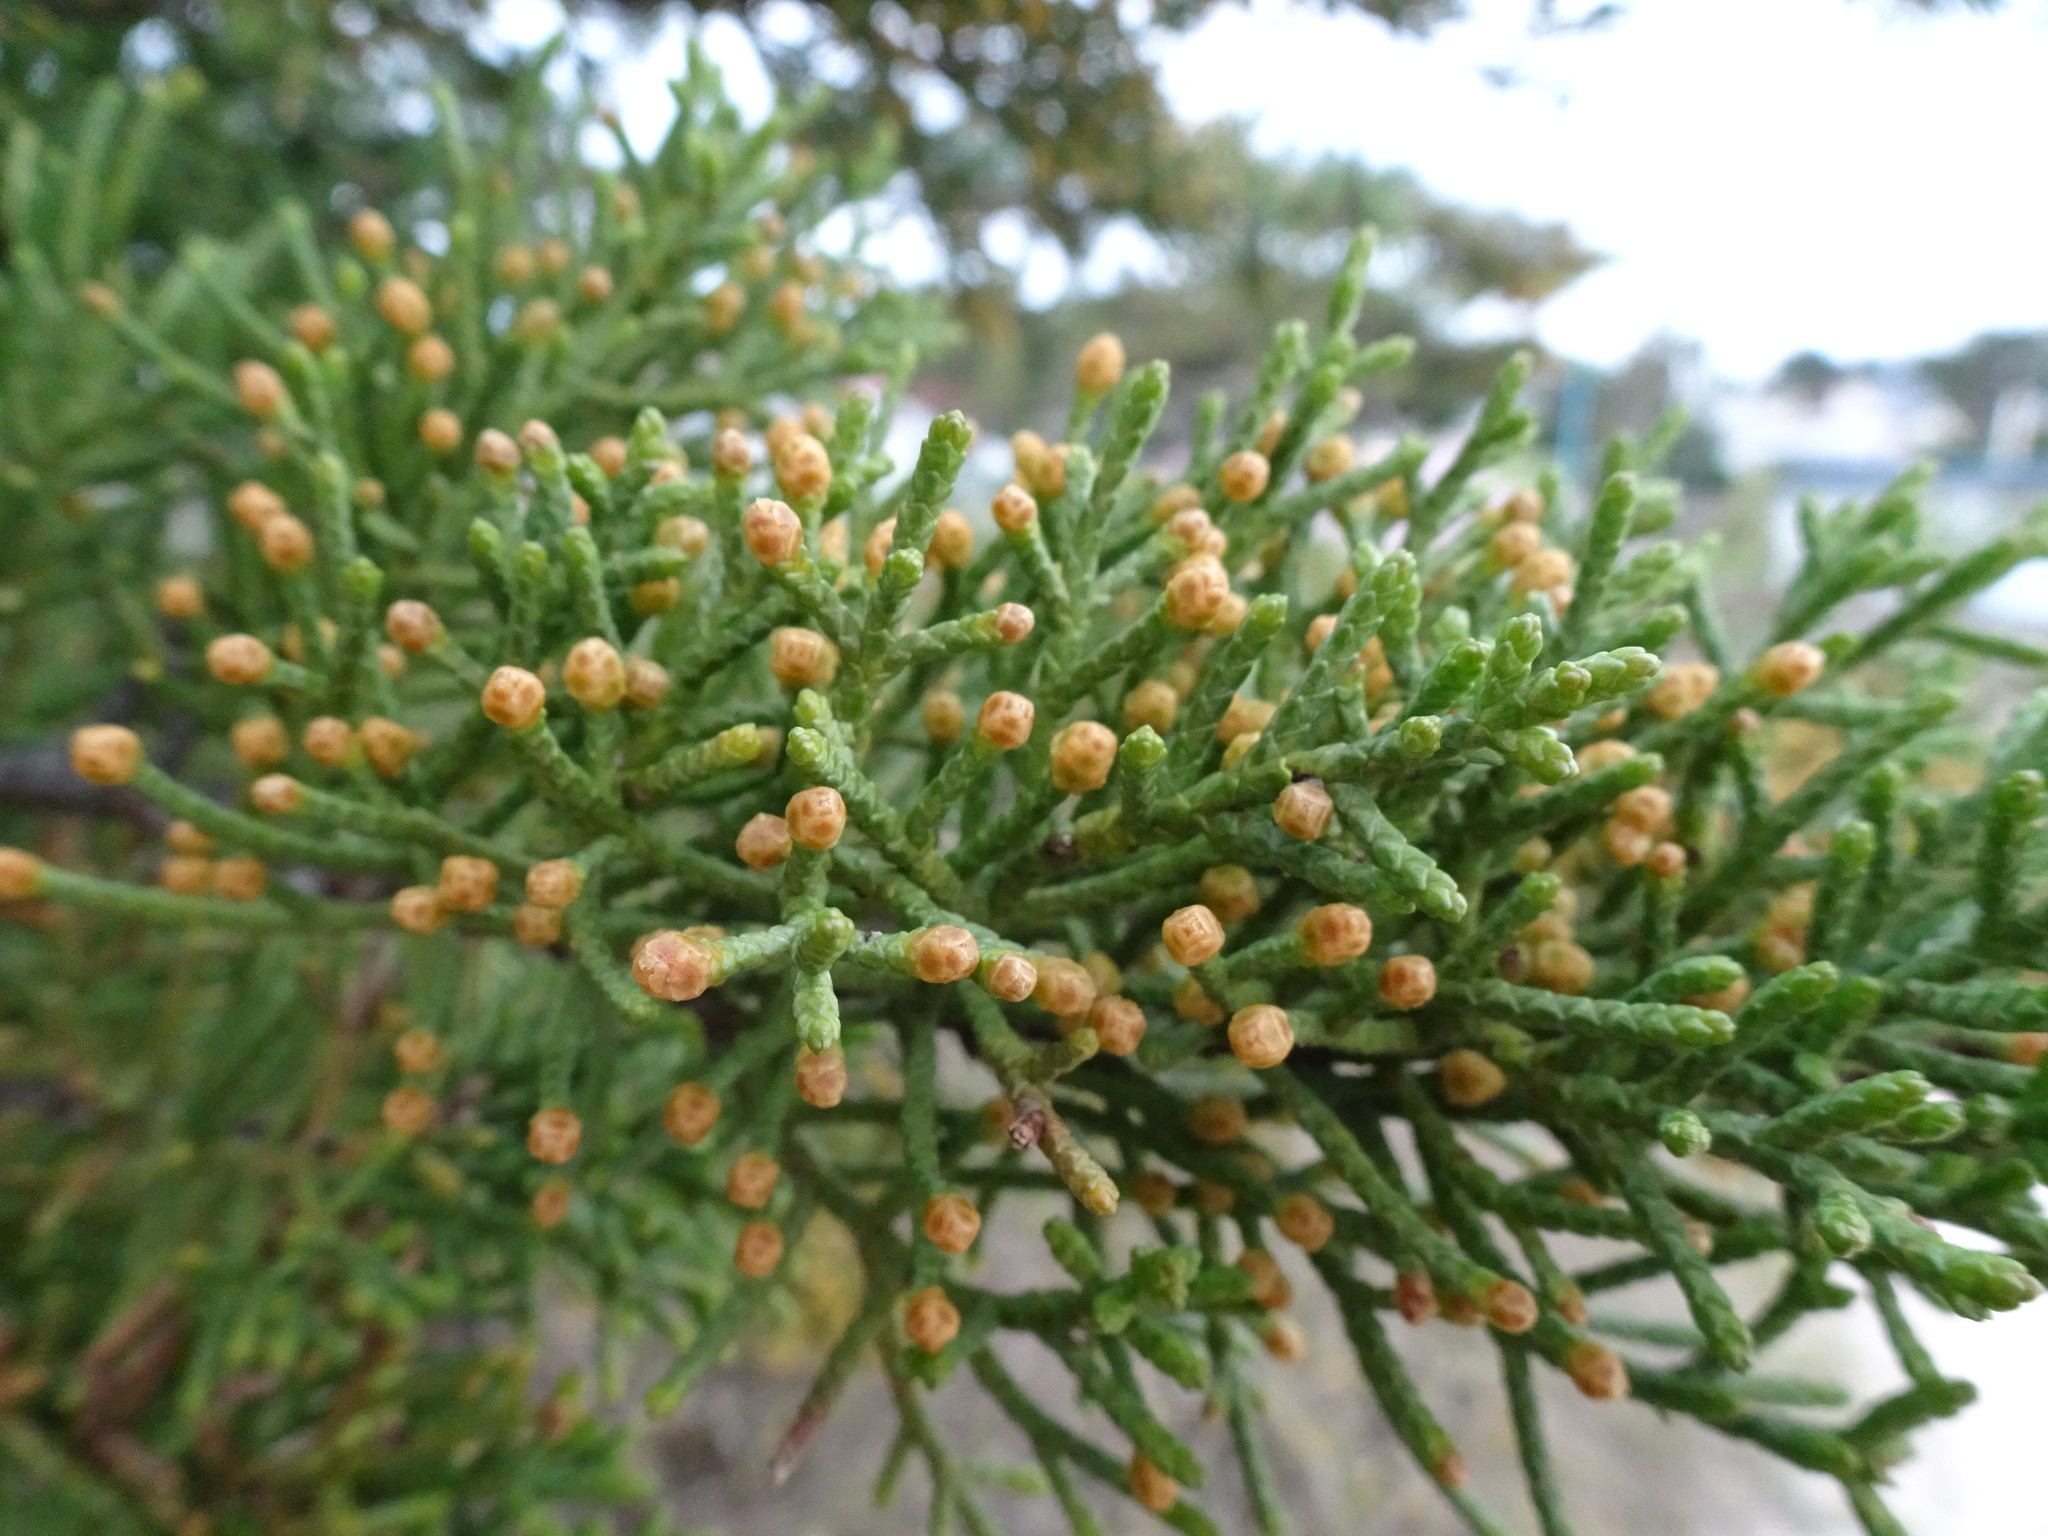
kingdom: Plantae
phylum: Tracheophyta
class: Pinopsida
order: Pinales
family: Cupressaceae
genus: Cupressus
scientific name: Cupressus macrocarpa
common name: Monterey cypress
